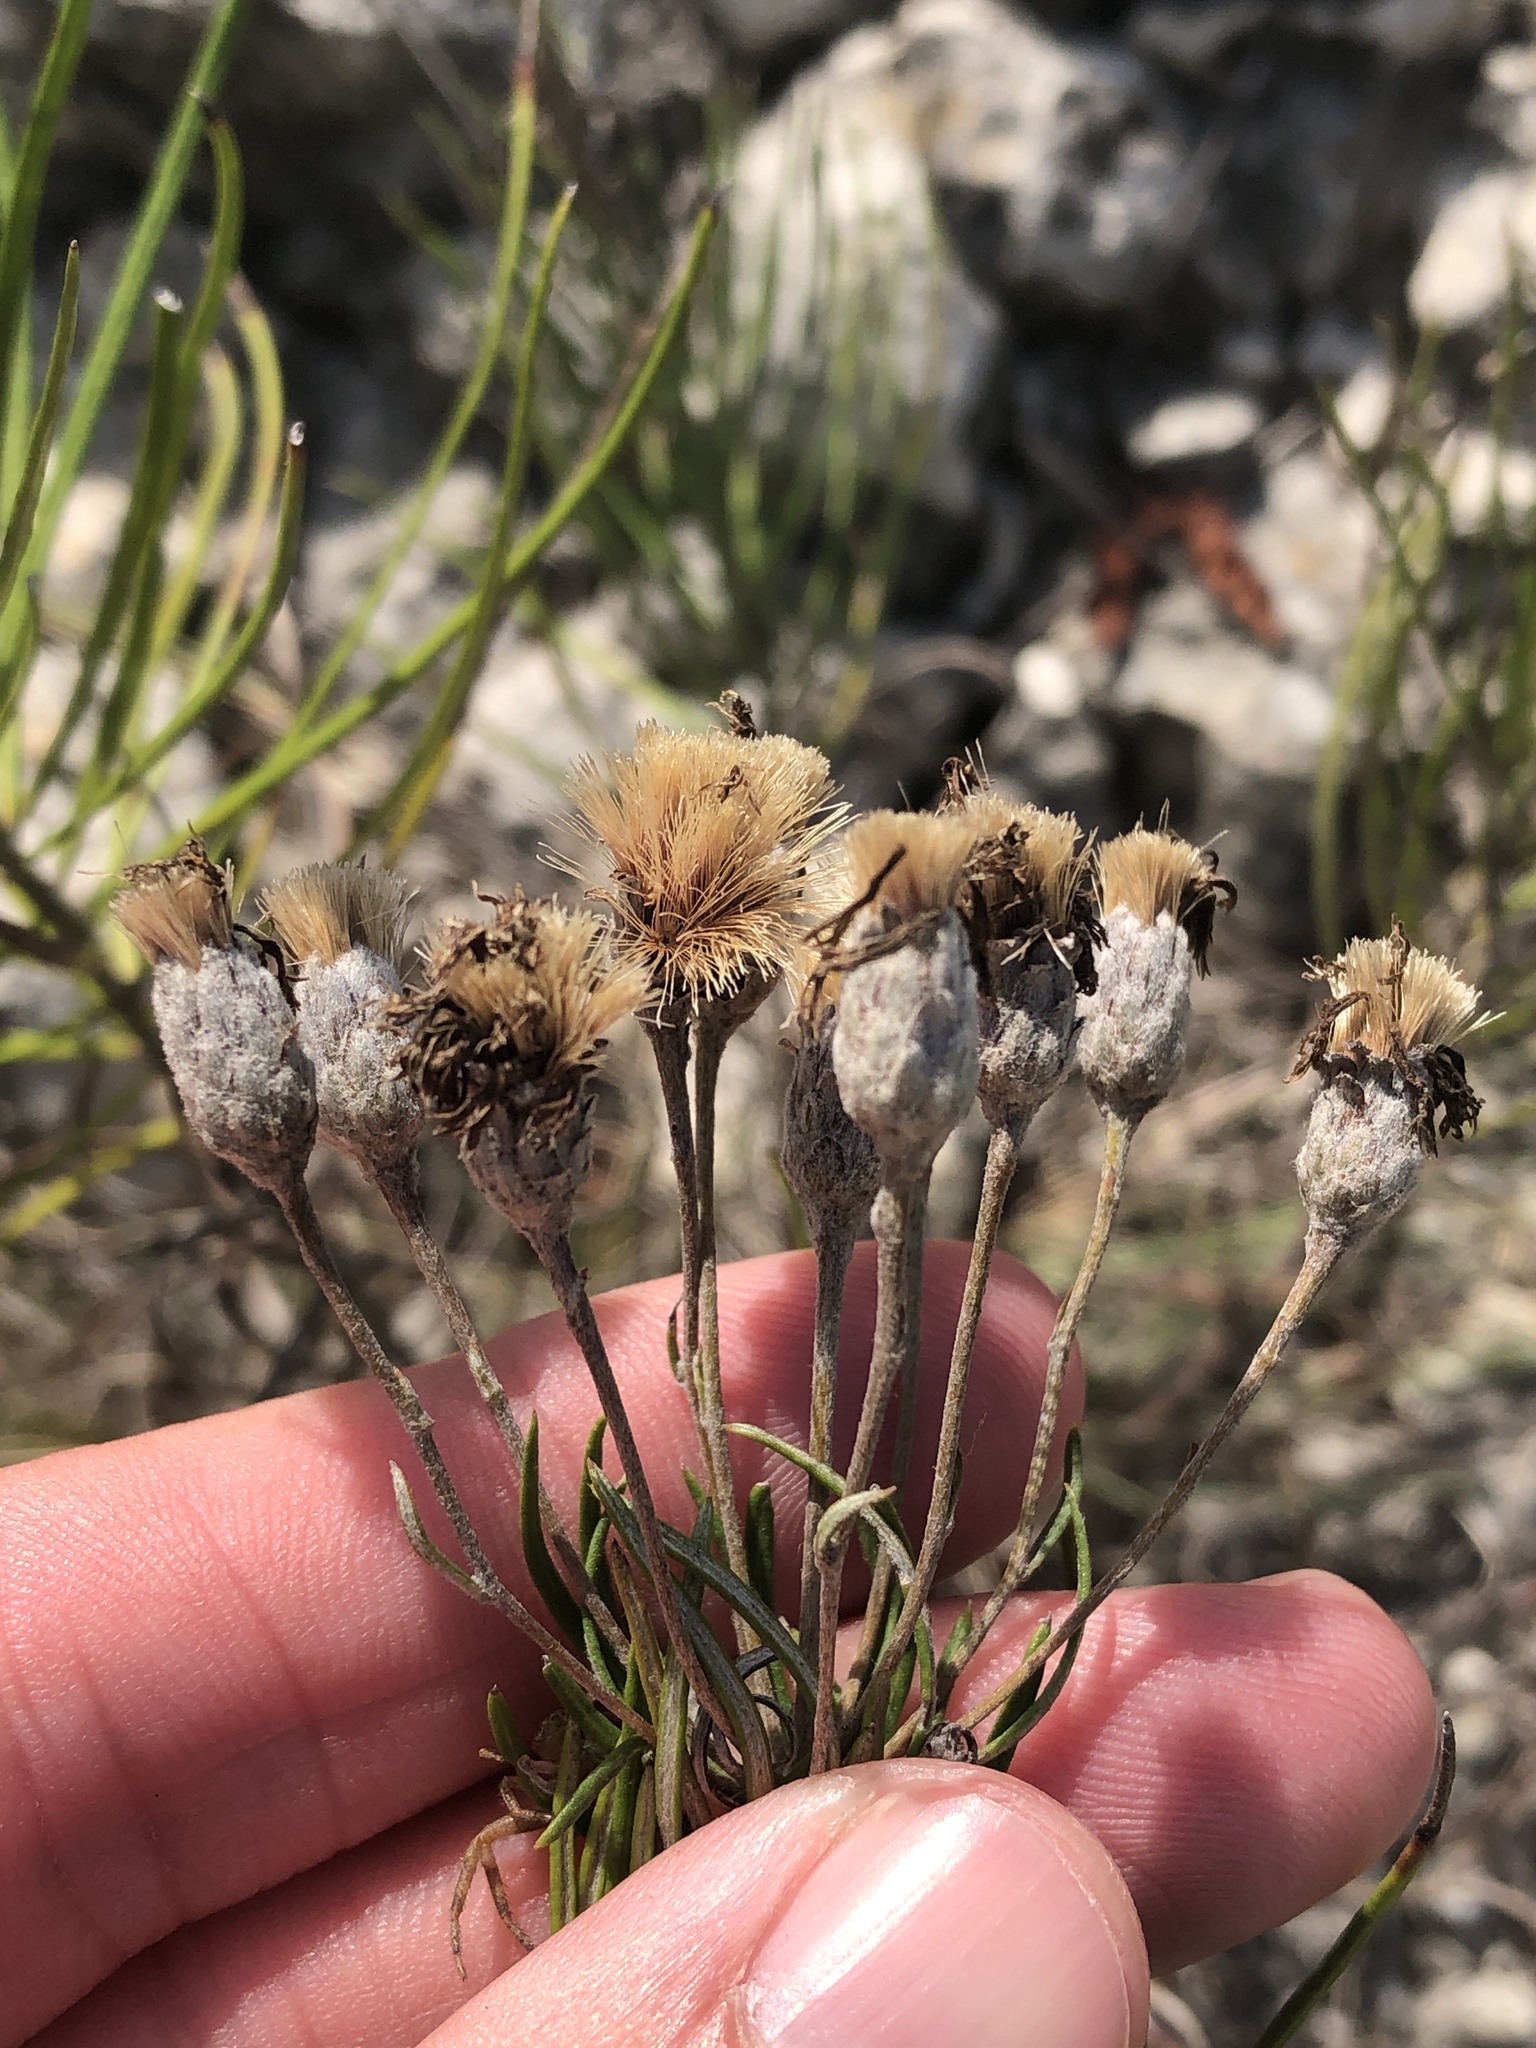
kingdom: Plantae
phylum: Tracheophyta
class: Magnoliopsida
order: Asterales
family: Asteraceae
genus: Vernonia
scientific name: Vernonia lindheimeri
